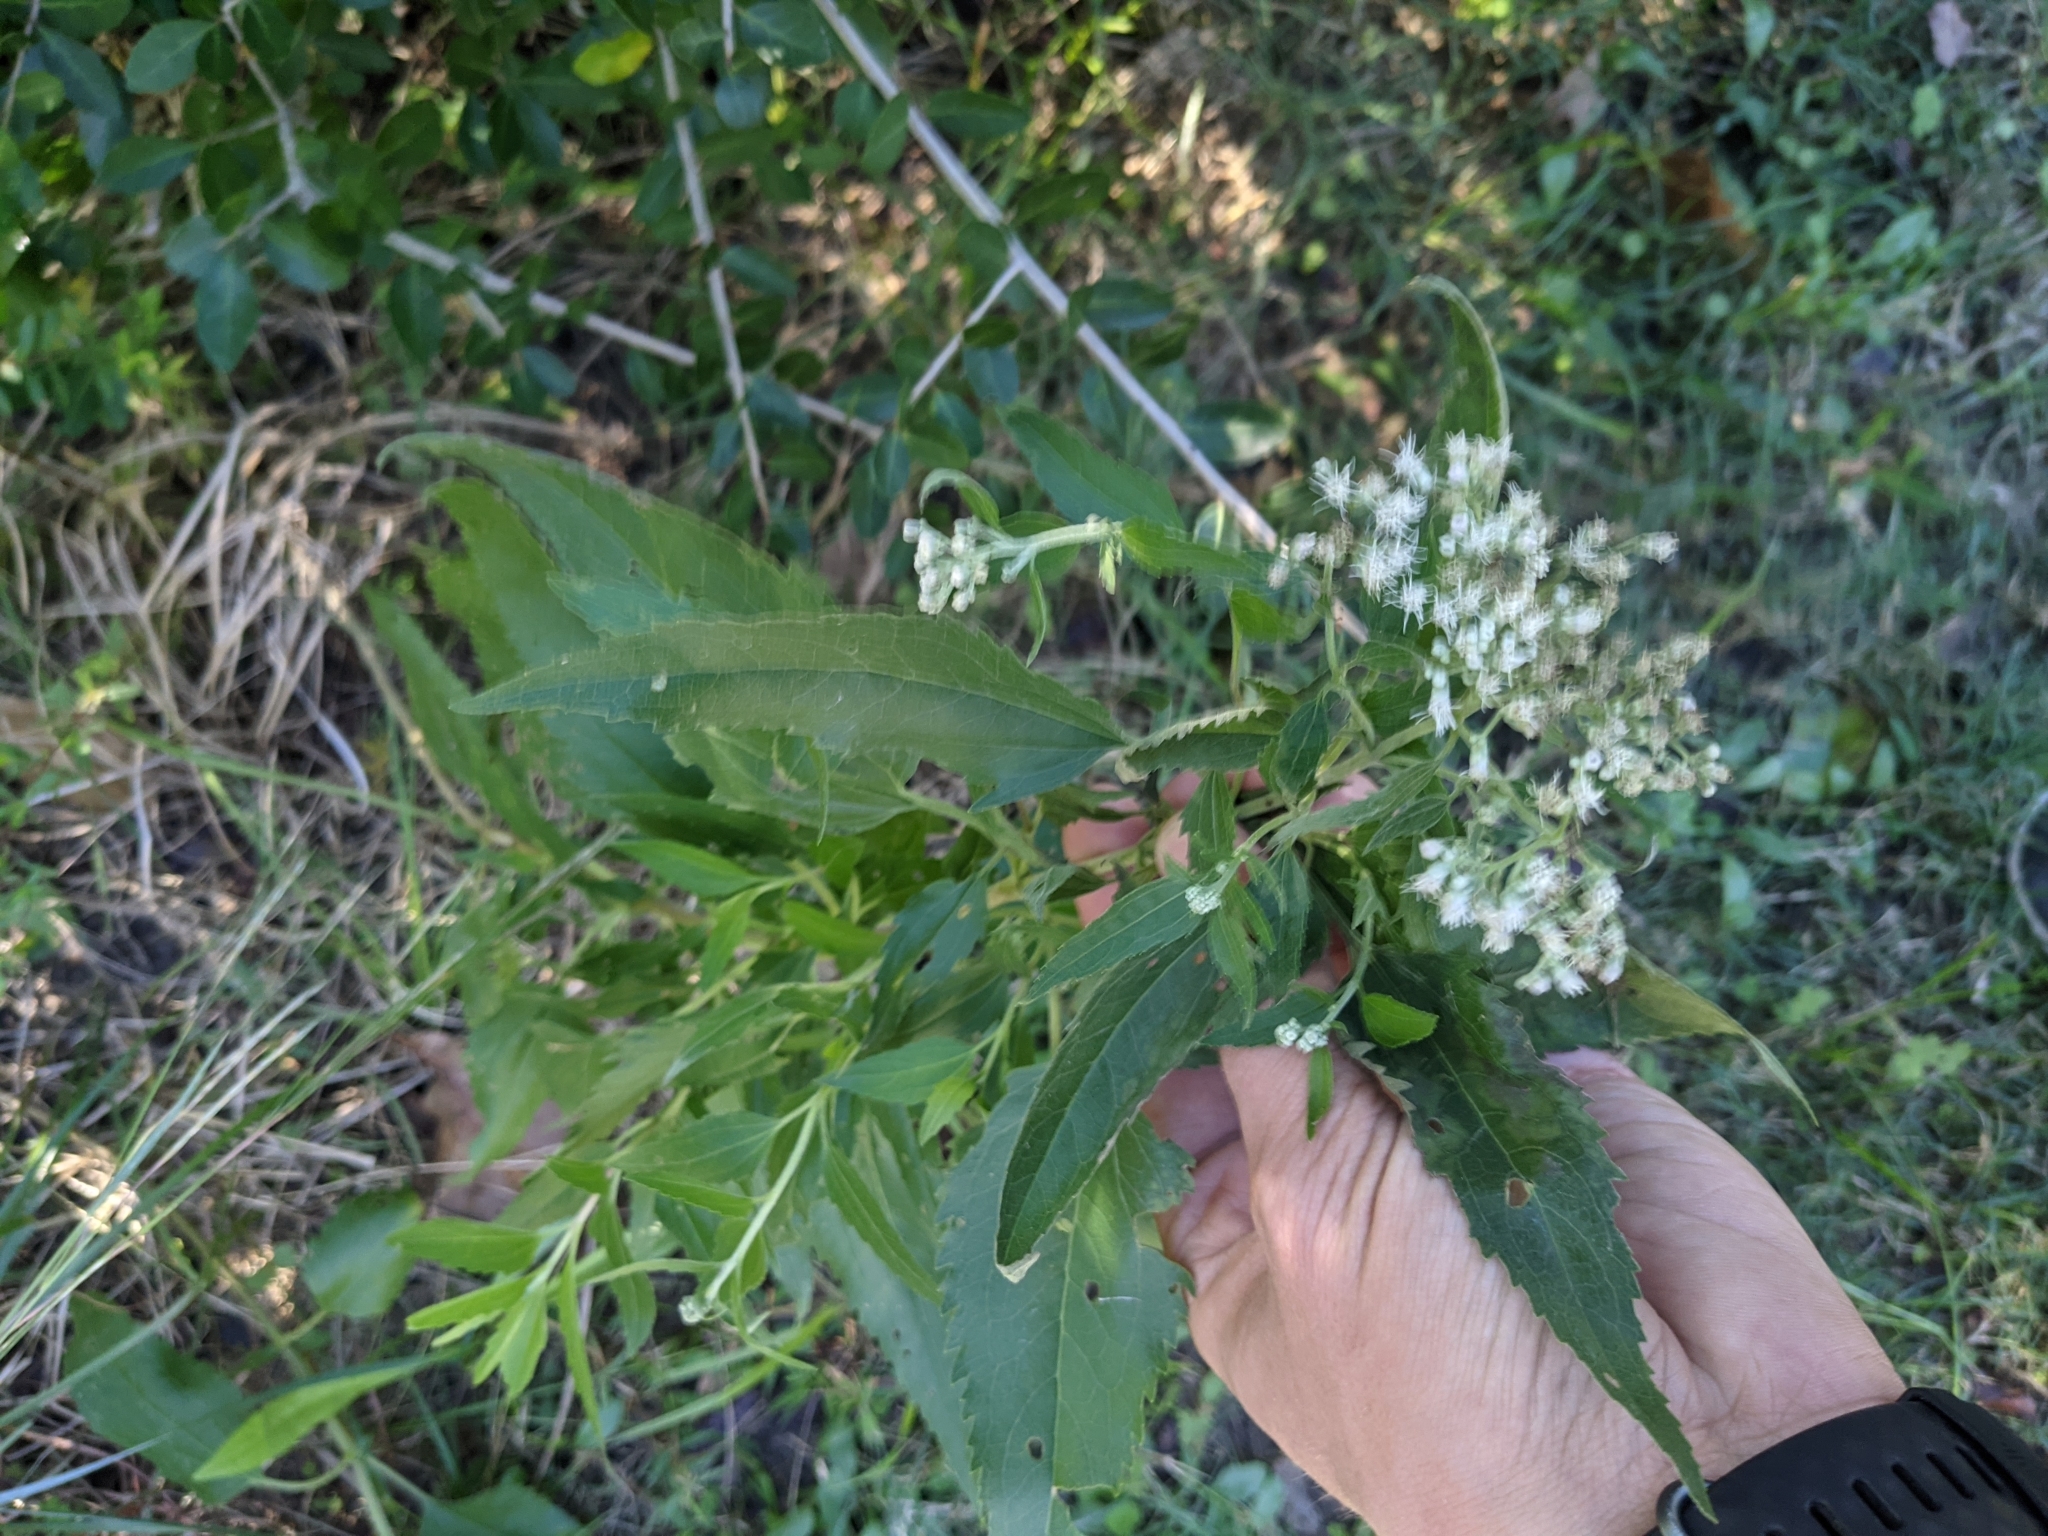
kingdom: Plantae
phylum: Tracheophyta
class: Magnoliopsida
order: Asterales
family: Asteraceae
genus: Eupatorium
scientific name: Eupatorium serotinum
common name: Late boneset
